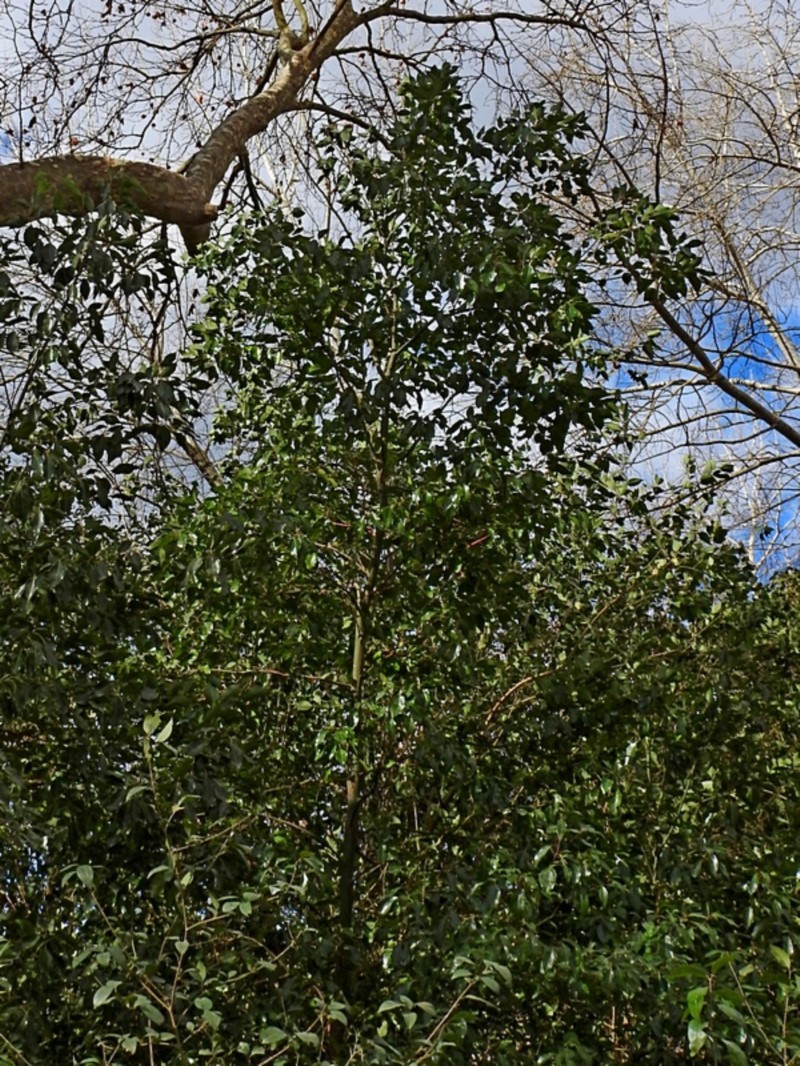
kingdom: Plantae
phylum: Tracheophyta
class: Magnoliopsida
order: Laurales
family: Lauraceae
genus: Cinnamomum
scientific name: Cinnamomum camphora
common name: Camphortree
